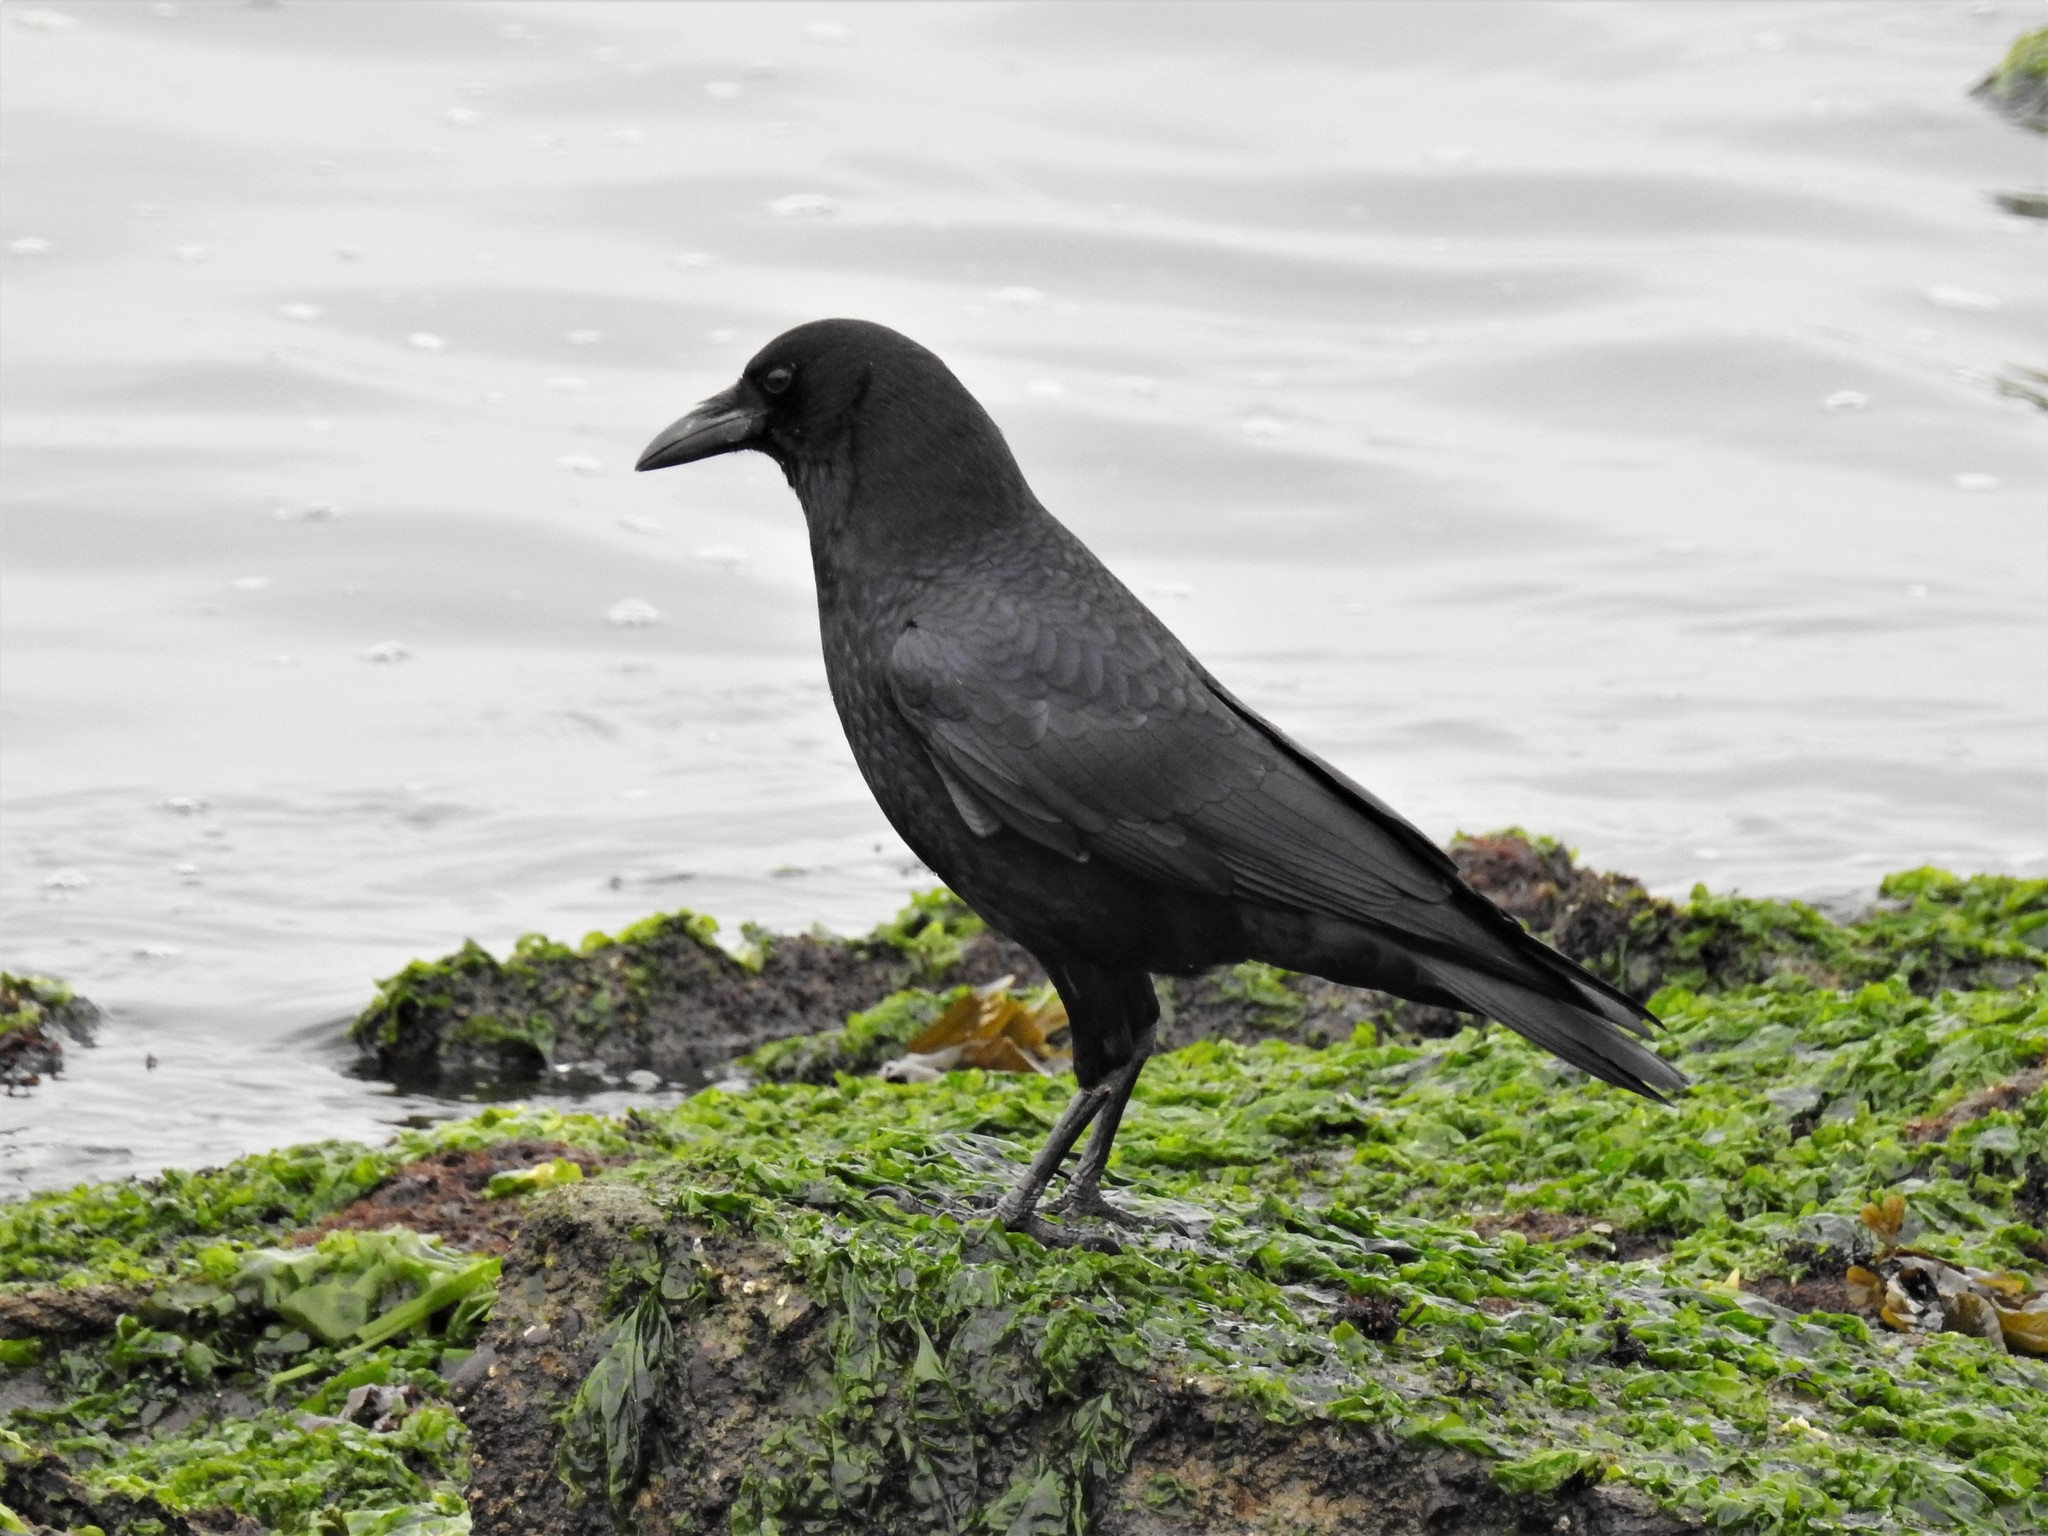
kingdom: Animalia
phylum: Chordata
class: Aves
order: Passeriformes
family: Corvidae
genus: Corvus
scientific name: Corvus brachyrhynchos
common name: American crow
